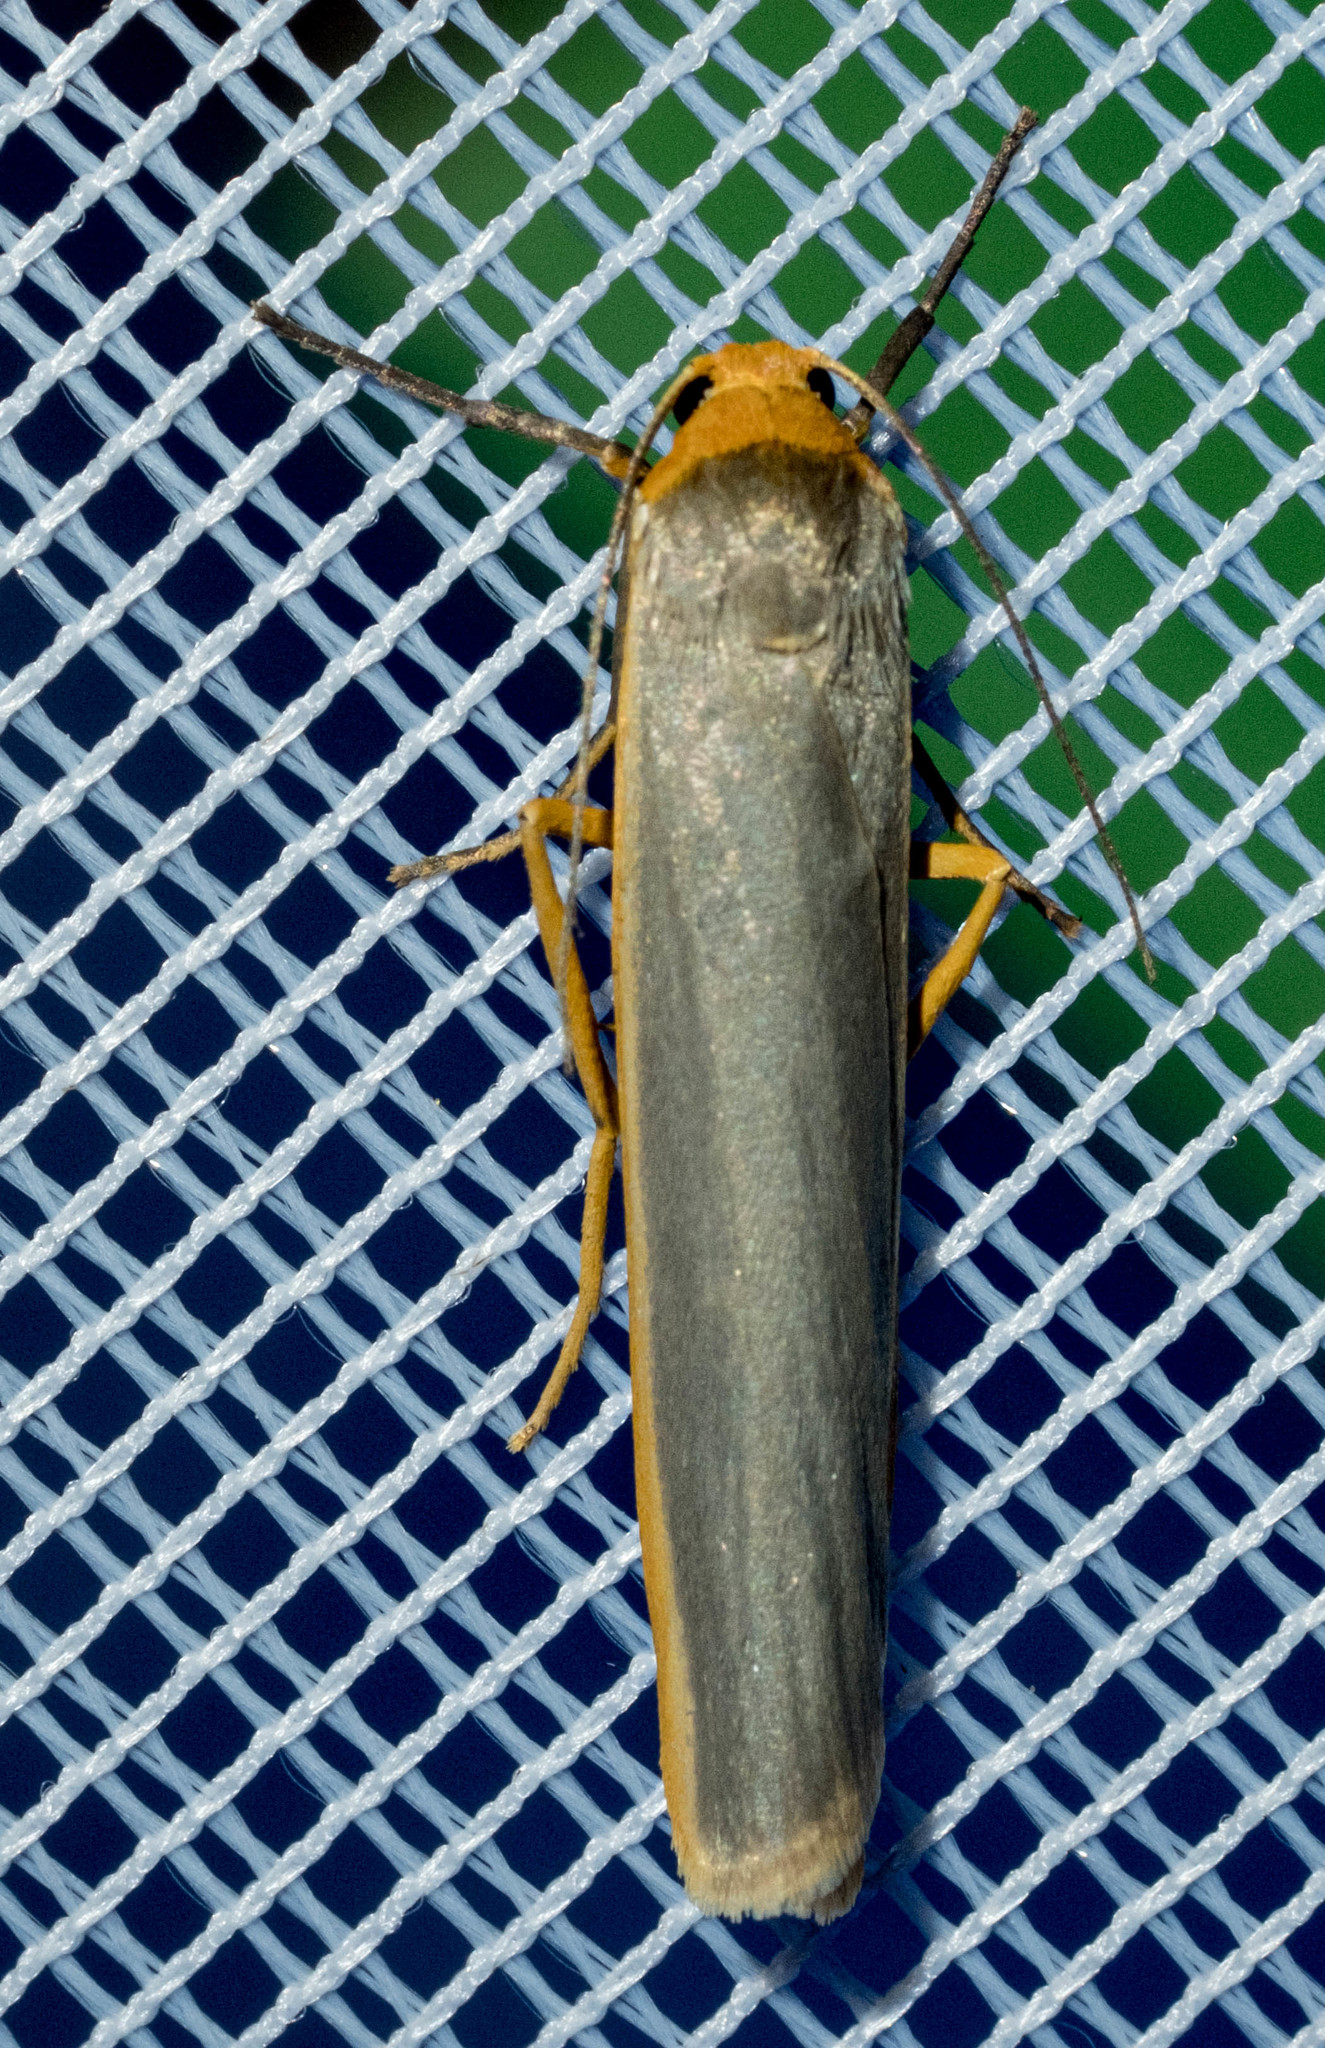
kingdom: Animalia
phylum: Arthropoda
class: Insecta
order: Lepidoptera
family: Erebidae
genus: Manulea
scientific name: Manulea complana
